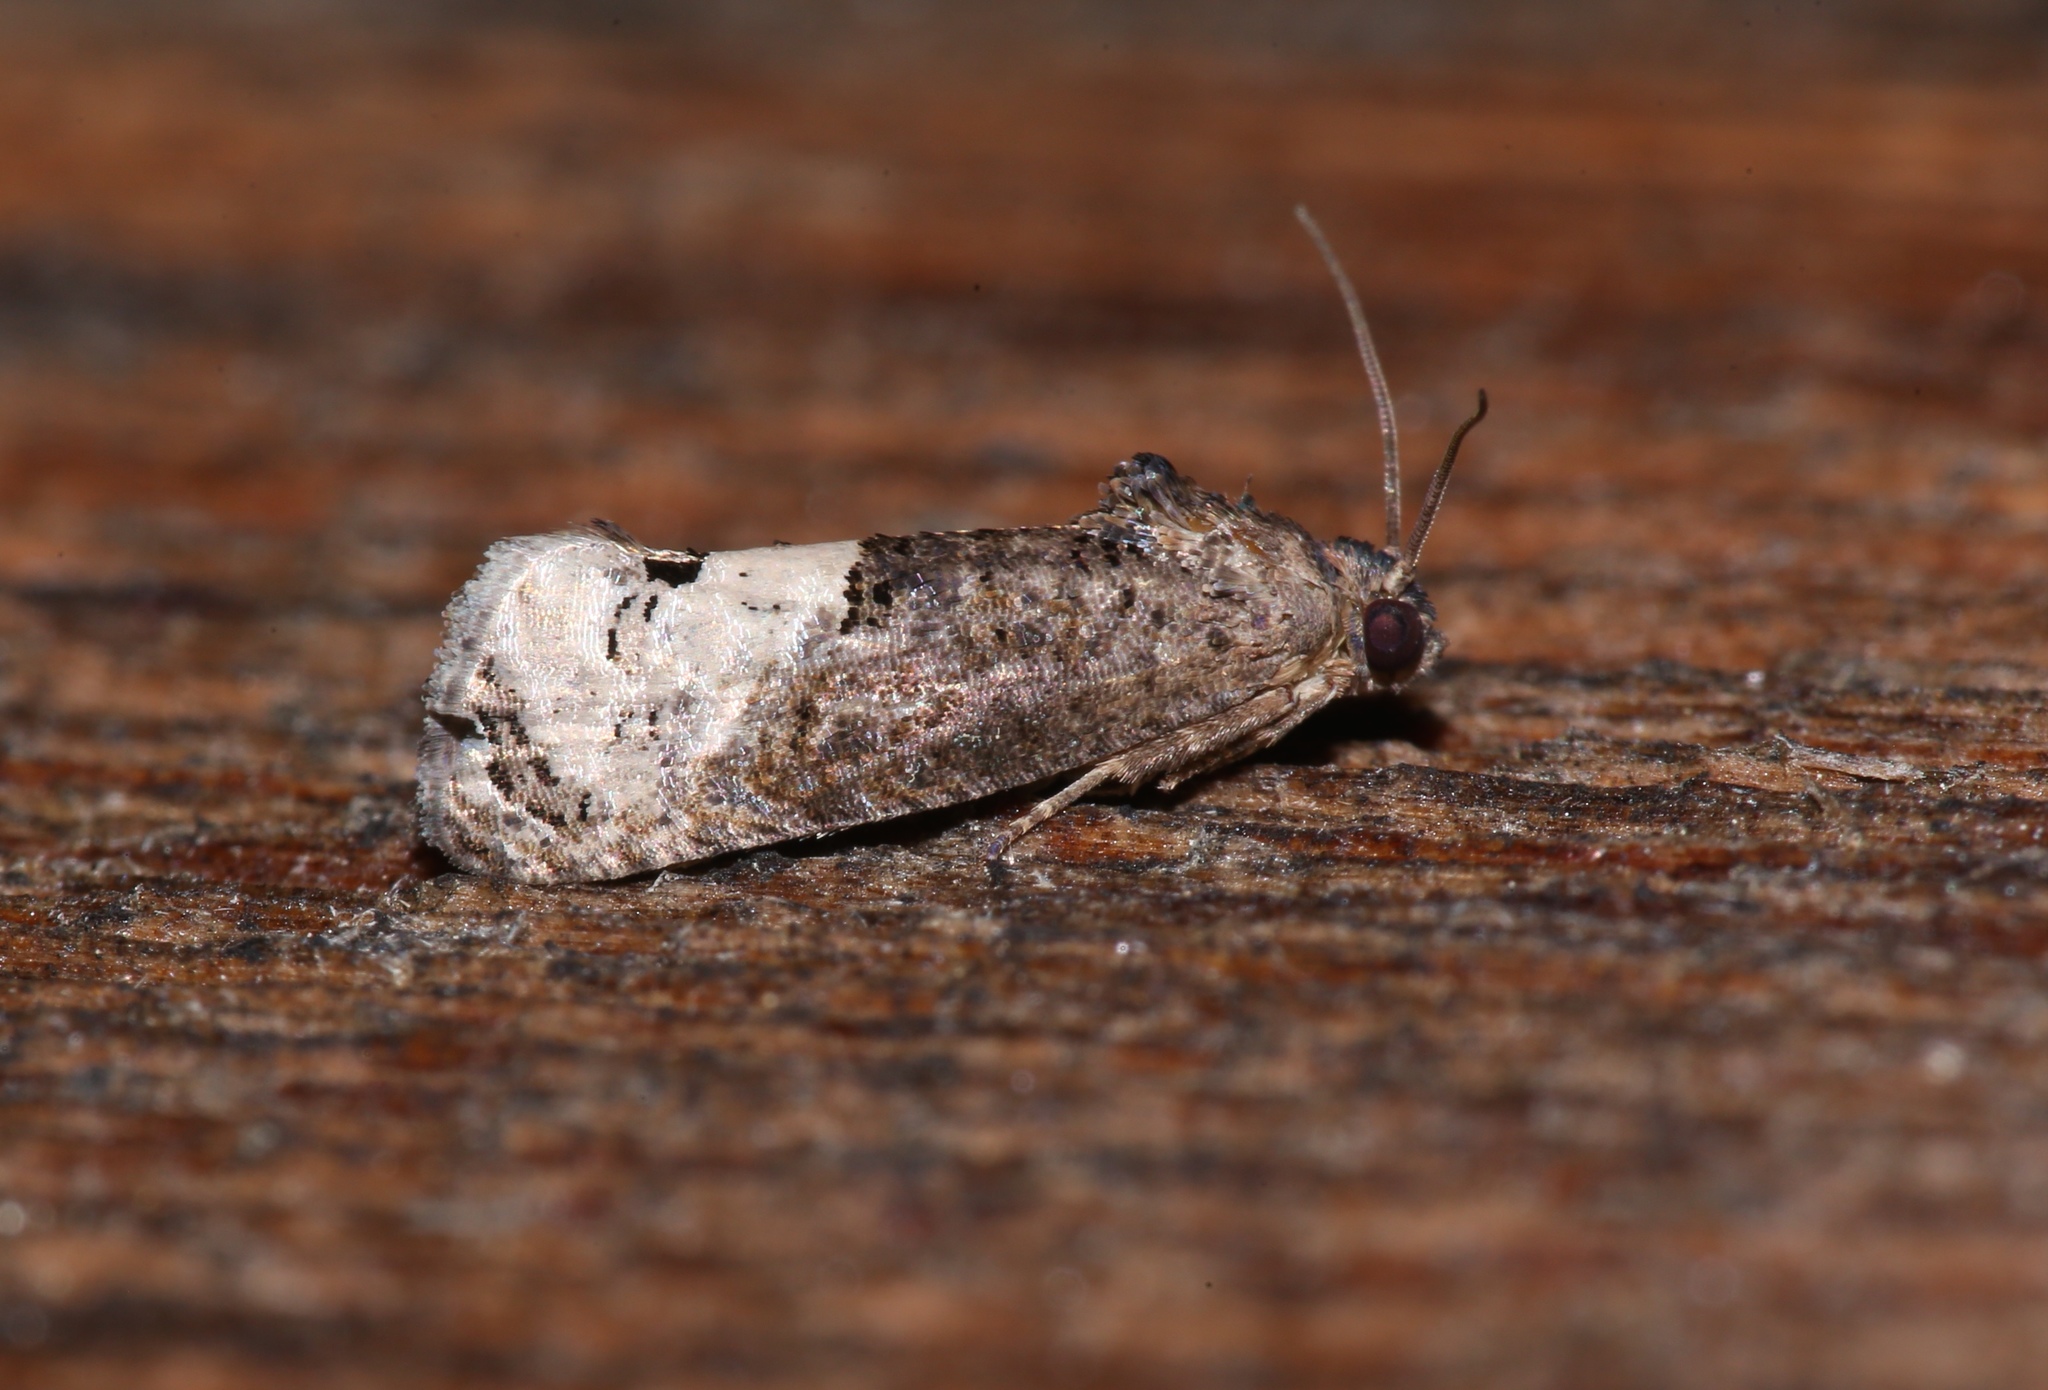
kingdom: Animalia
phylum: Arthropoda
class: Insecta
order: Lepidoptera
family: Tortricidae
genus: Ecdytolopha
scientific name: Ecdytolopha insiticiana
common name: Locust twig borer moth
